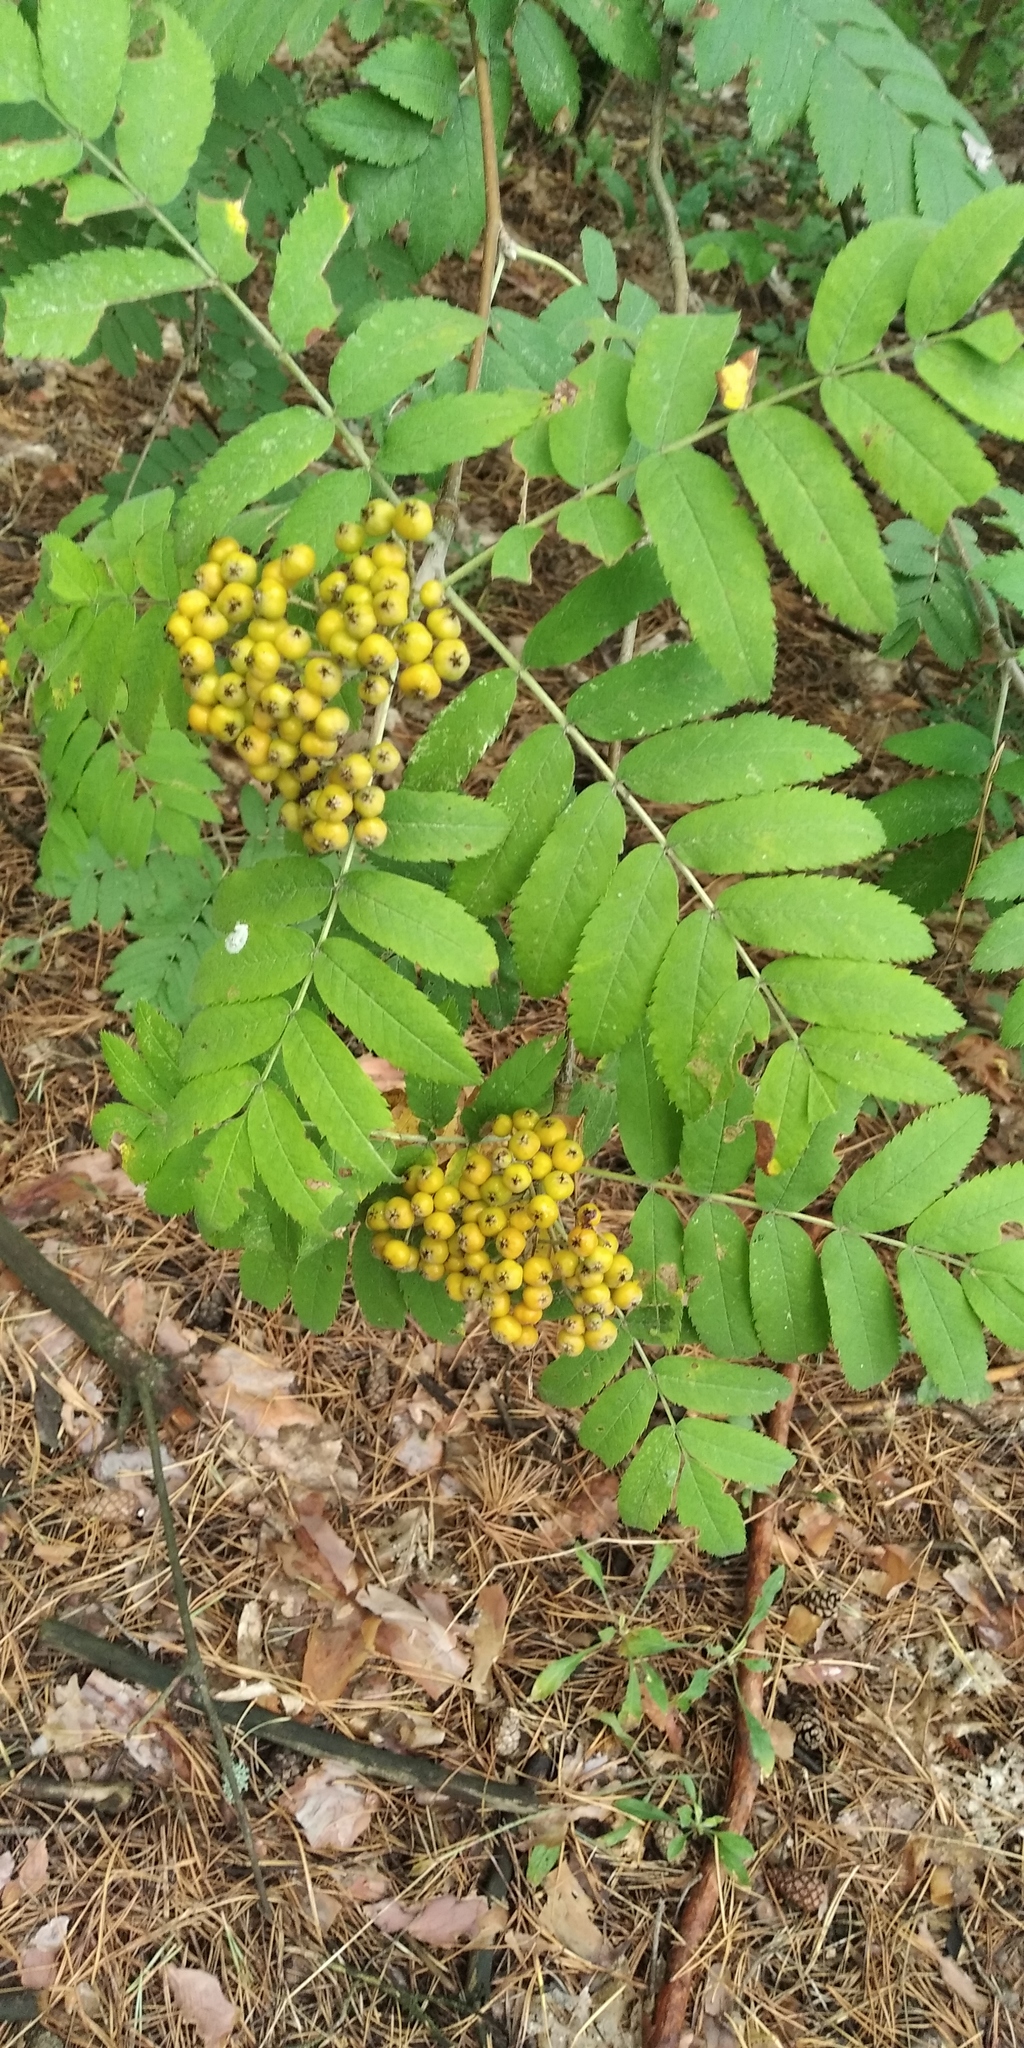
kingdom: Plantae
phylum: Tracheophyta
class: Magnoliopsida
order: Rosales
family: Rosaceae
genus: Sorbus
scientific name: Sorbus aucuparia
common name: Rowan
